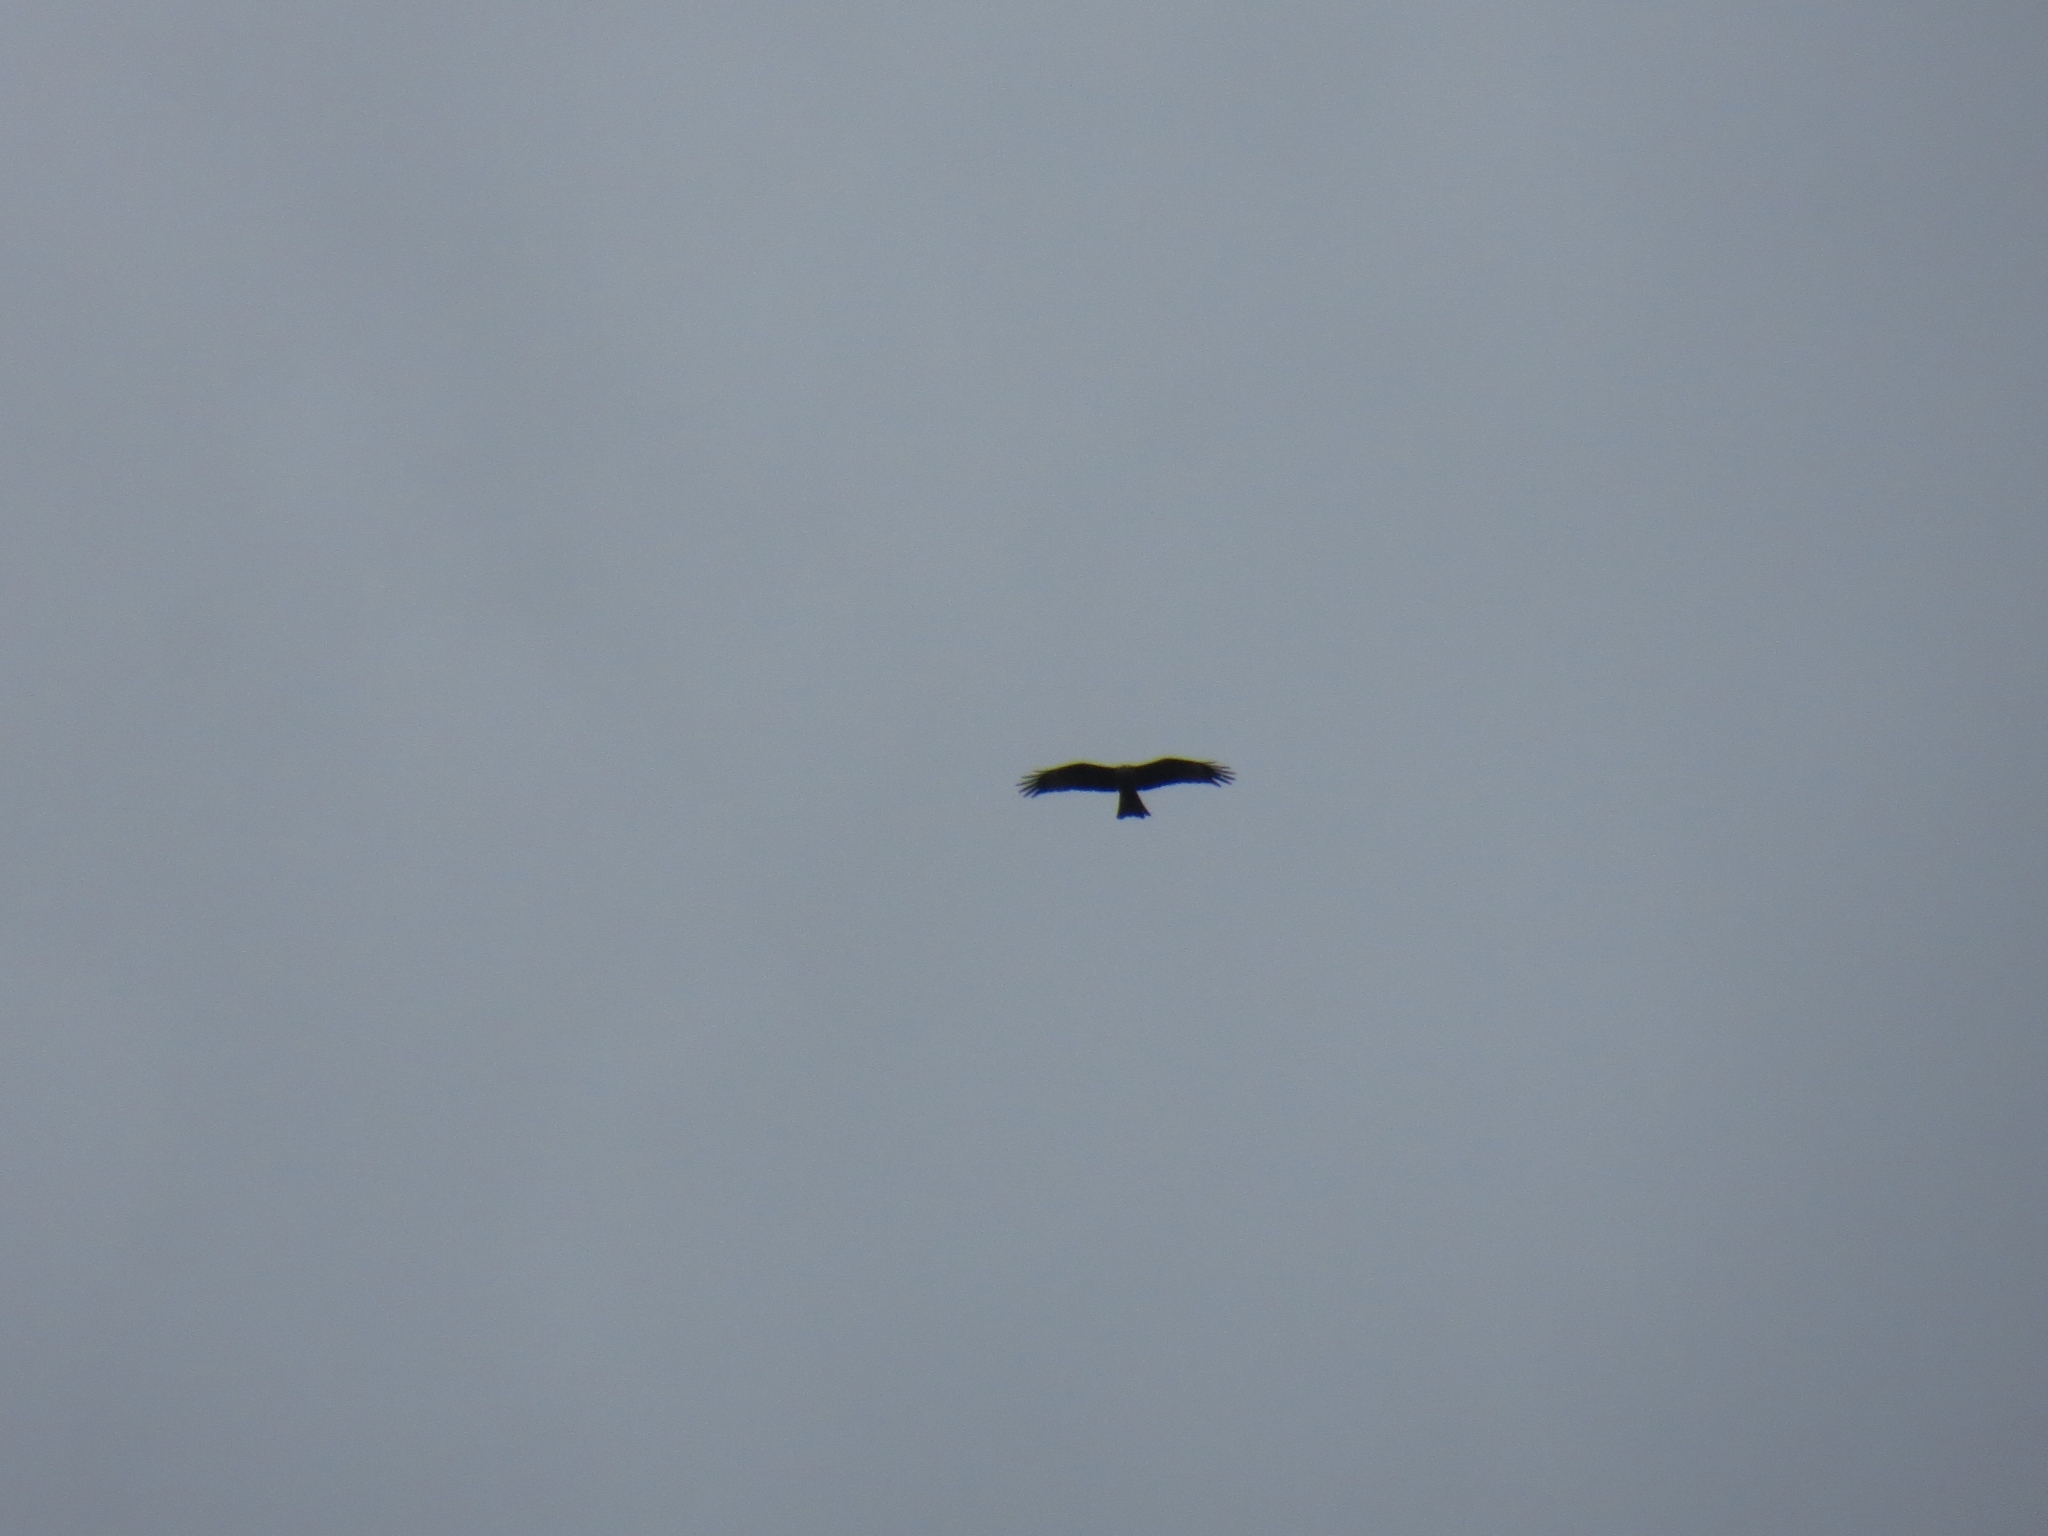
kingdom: Animalia
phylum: Chordata
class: Aves
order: Accipitriformes
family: Accipitridae
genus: Milvus
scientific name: Milvus migrans
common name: Black kite
